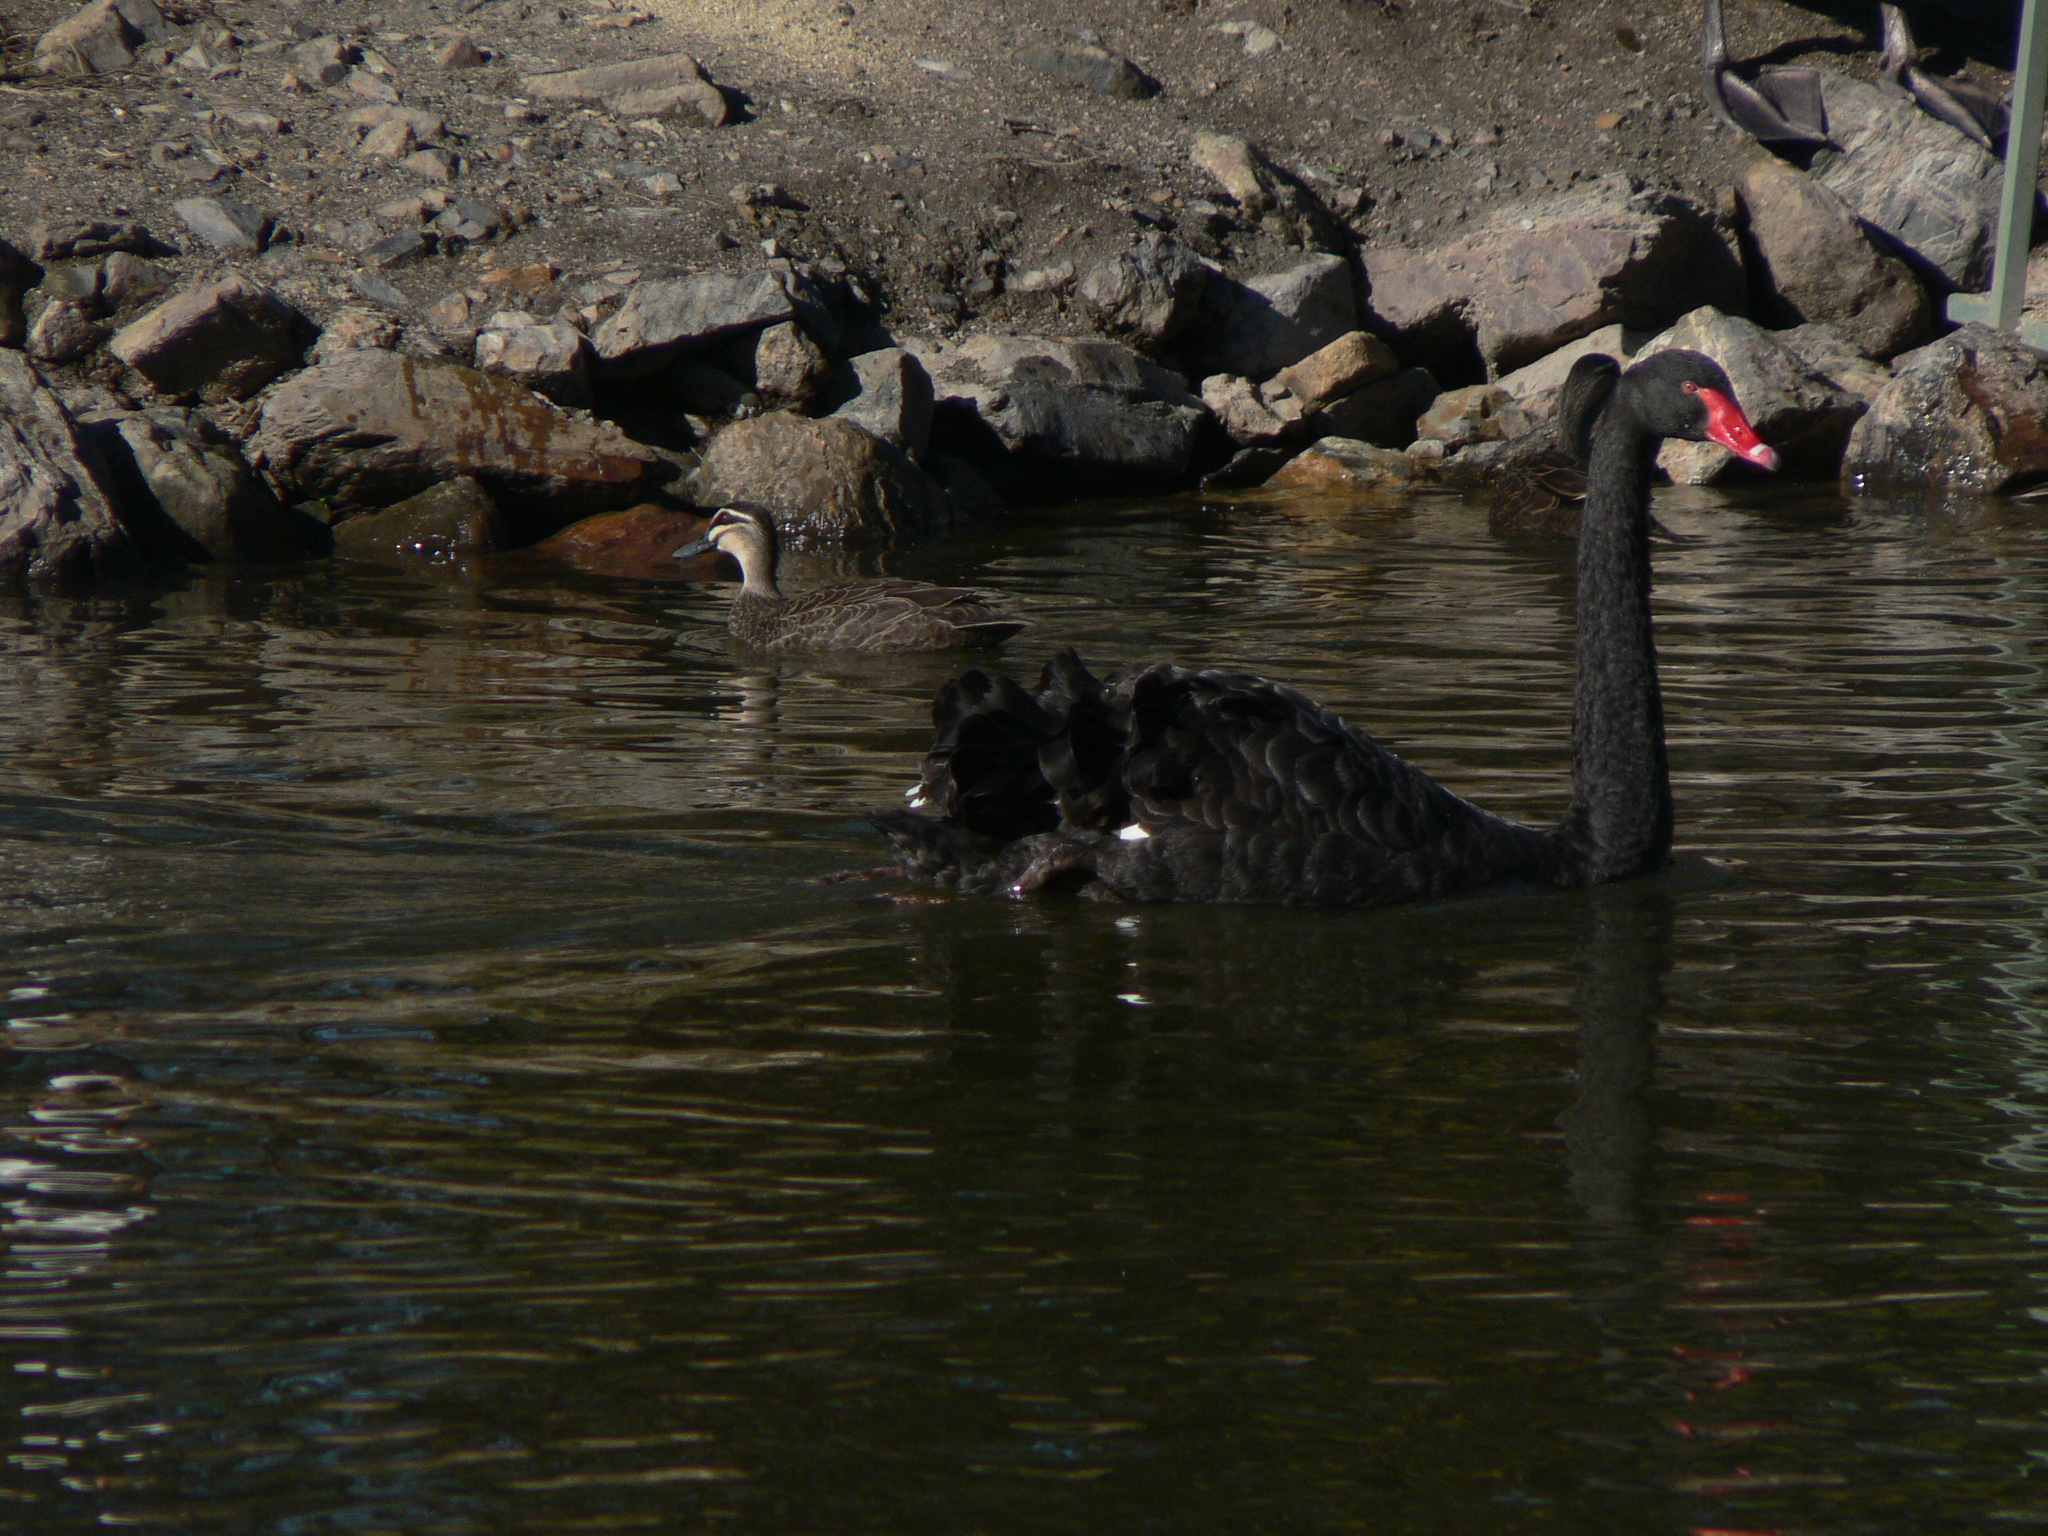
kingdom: Animalia
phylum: Chordata
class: Aves
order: Anseriformes
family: Anatidae
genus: Cygnus
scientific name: Cygnus atratus
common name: Black swan
